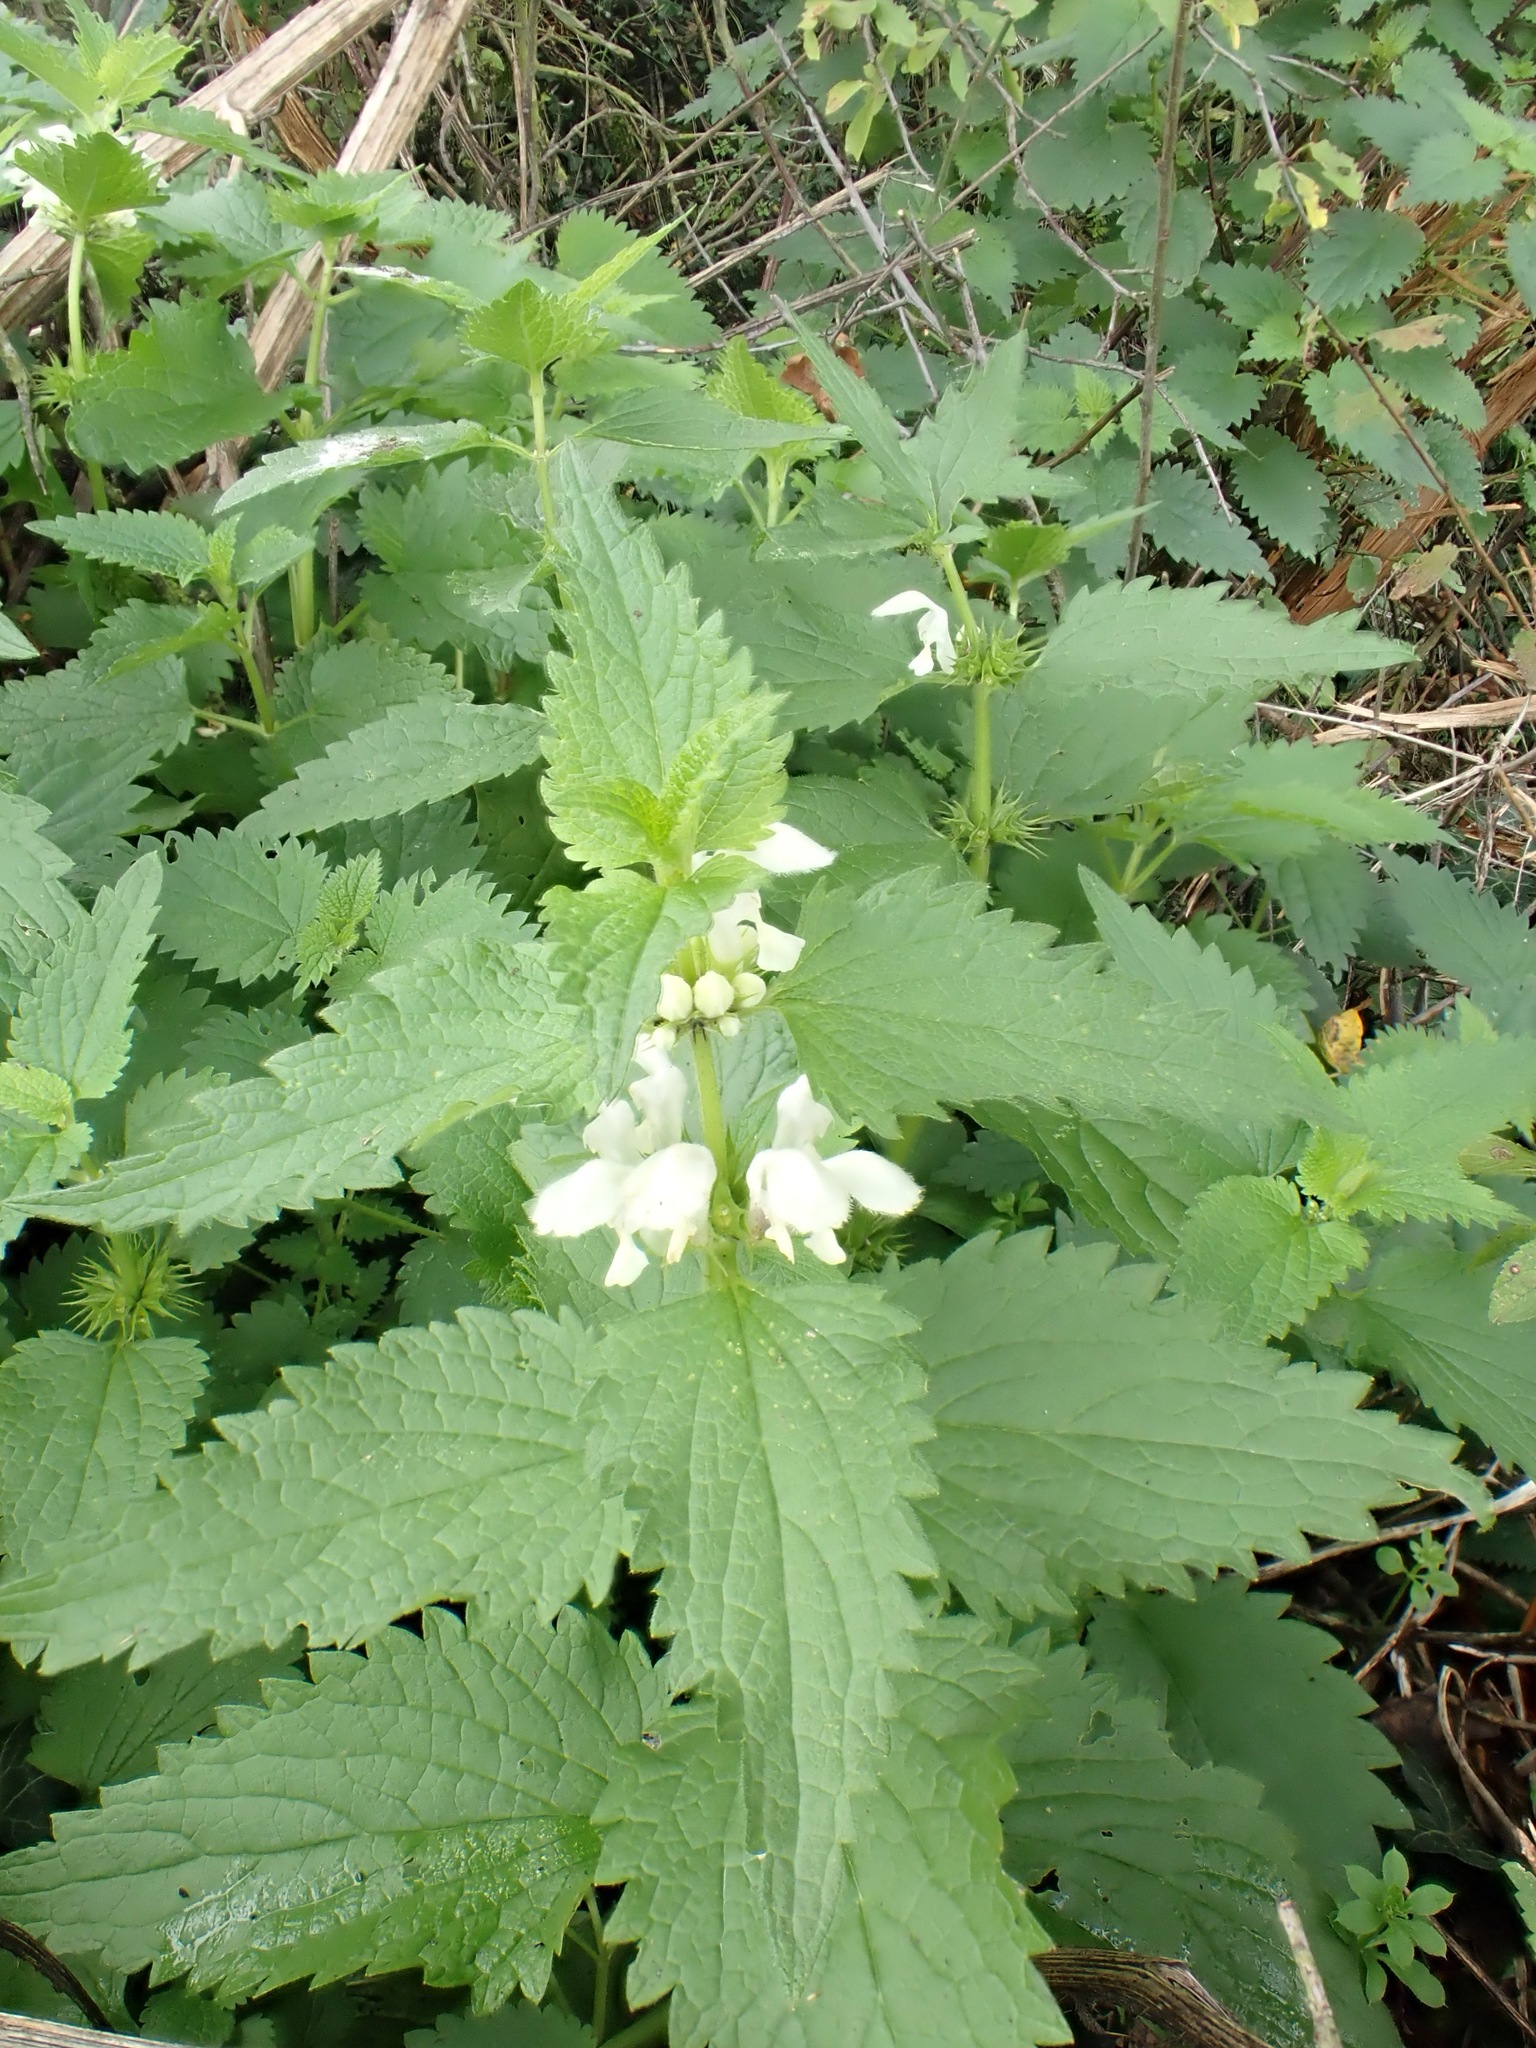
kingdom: Plantae
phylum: Tracheophyta
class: Magnoliopsida
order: Lamiales
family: Lamiaceae
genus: Lamium
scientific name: Lamium album
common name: White dead-nettle
